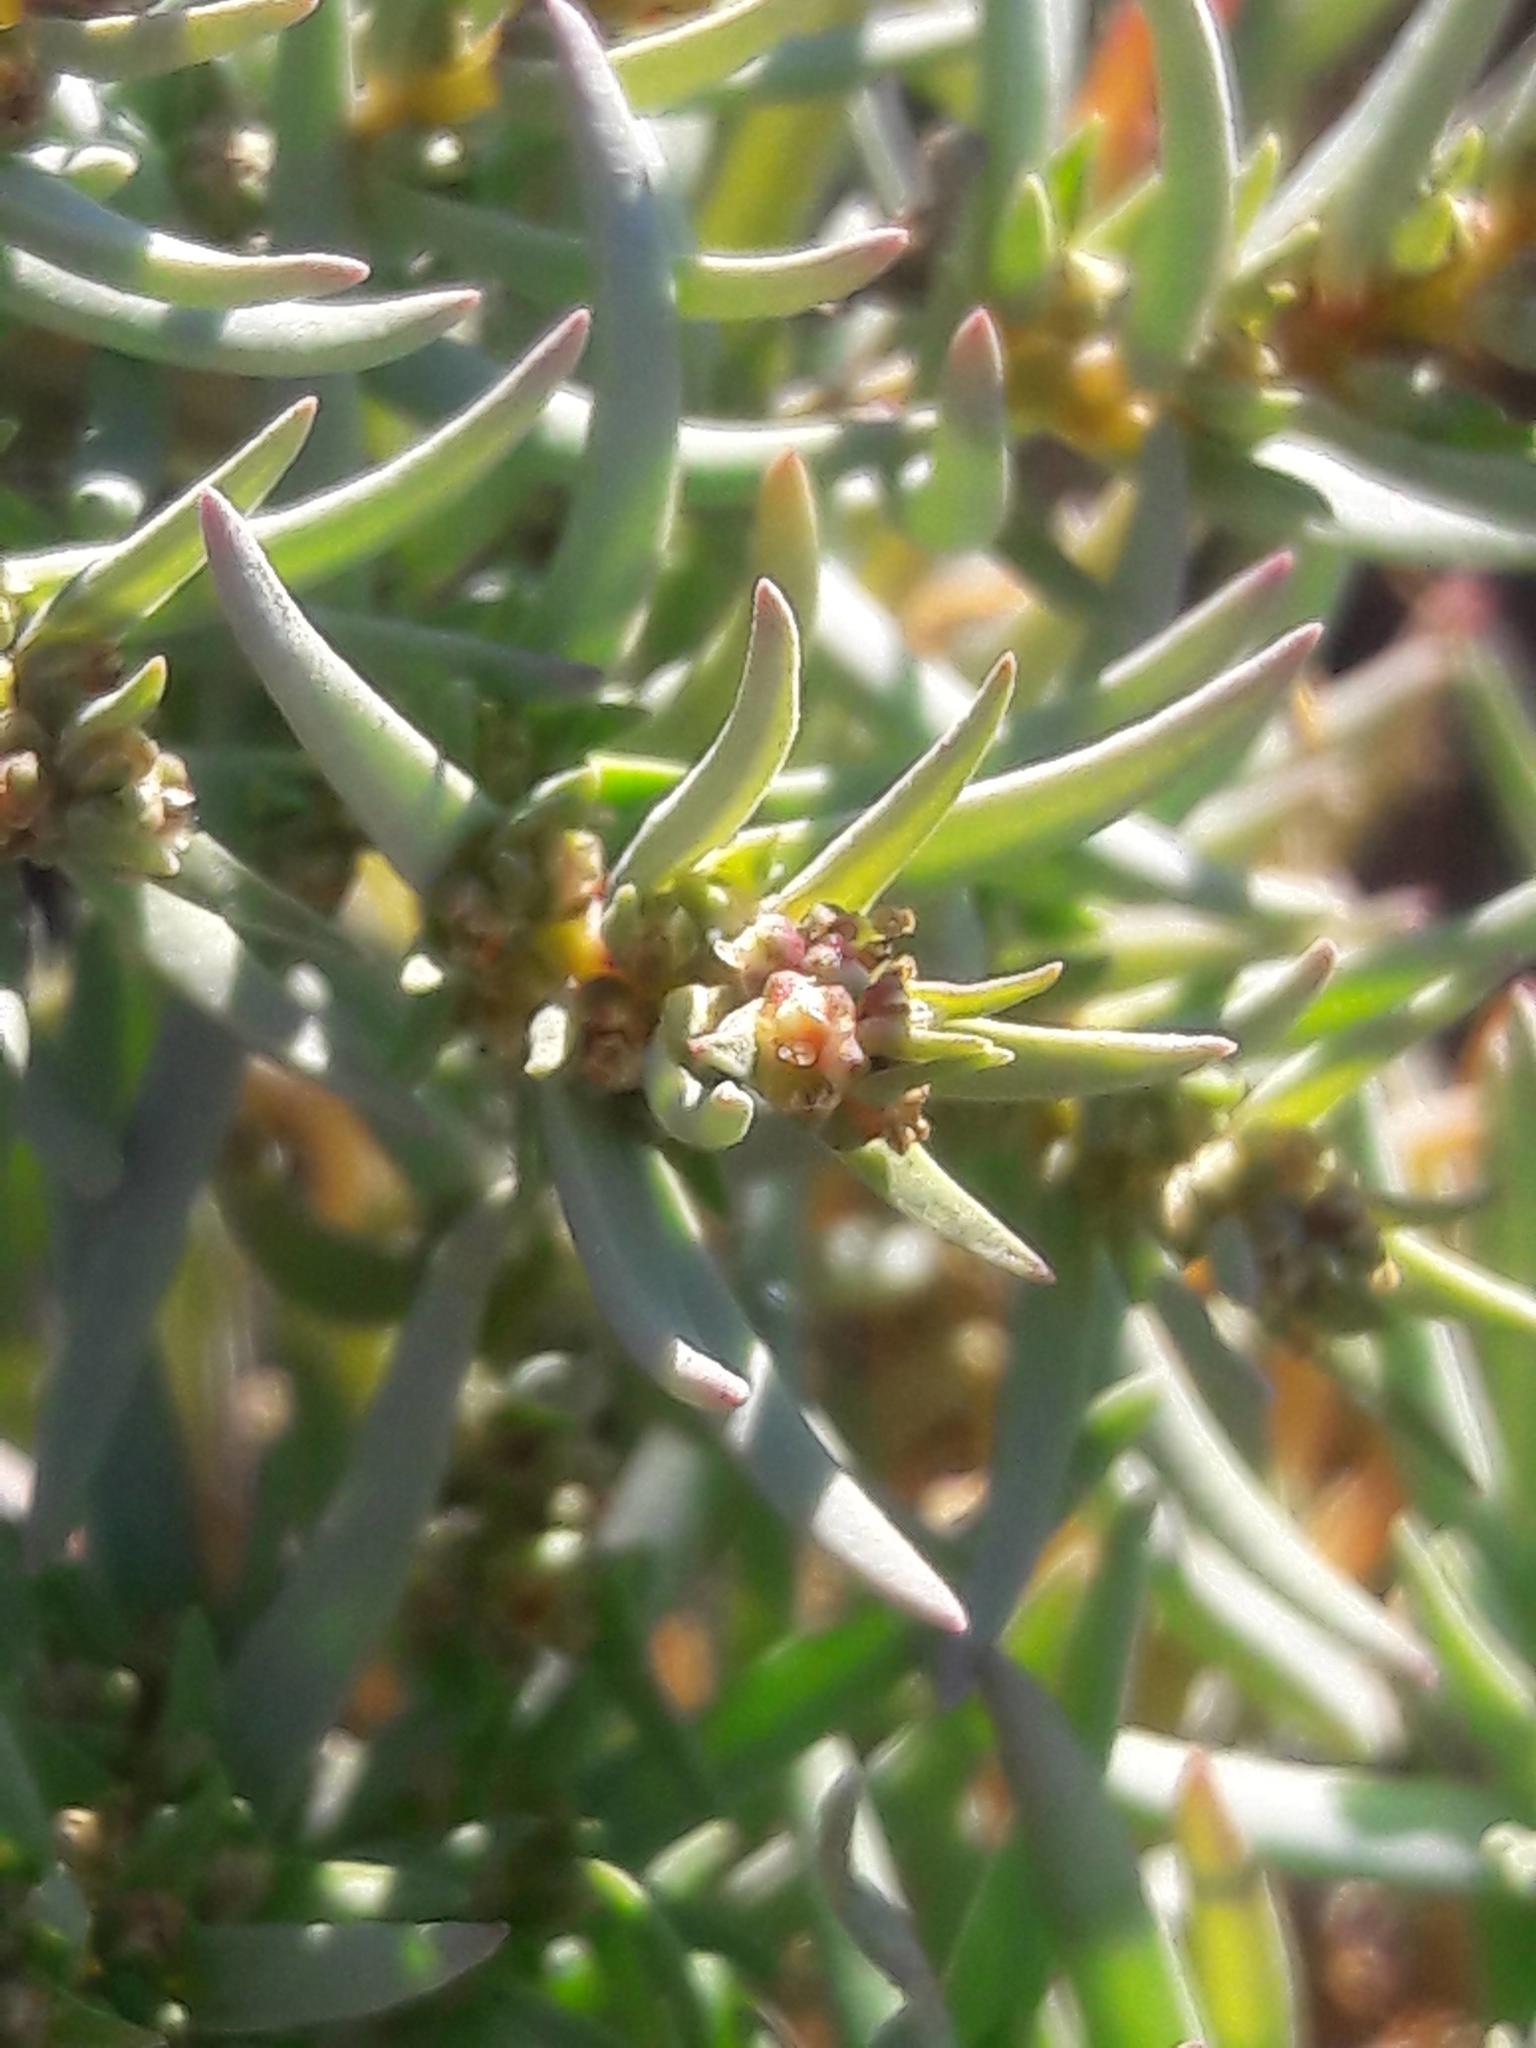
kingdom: Plantae
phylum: Tracheophyta
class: Magnoliopsida
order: Caryophyllales
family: Amaranthaceae
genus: Suaeda
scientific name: Suaeda maritima
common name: Annual sea-blite
